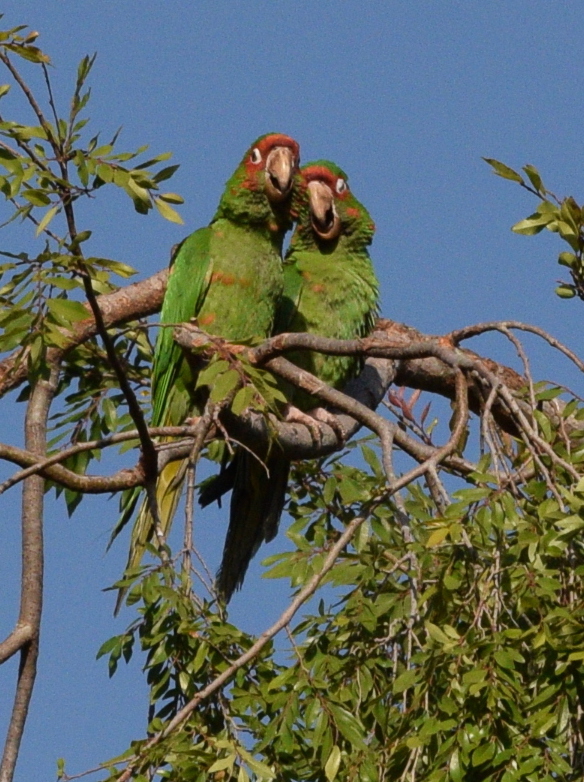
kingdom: Animalia
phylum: Chordata
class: Aves
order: Psittaciformes
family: Psittacidae
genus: Aratinga
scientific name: Aratinga mitrata
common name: Mitred parakeet
